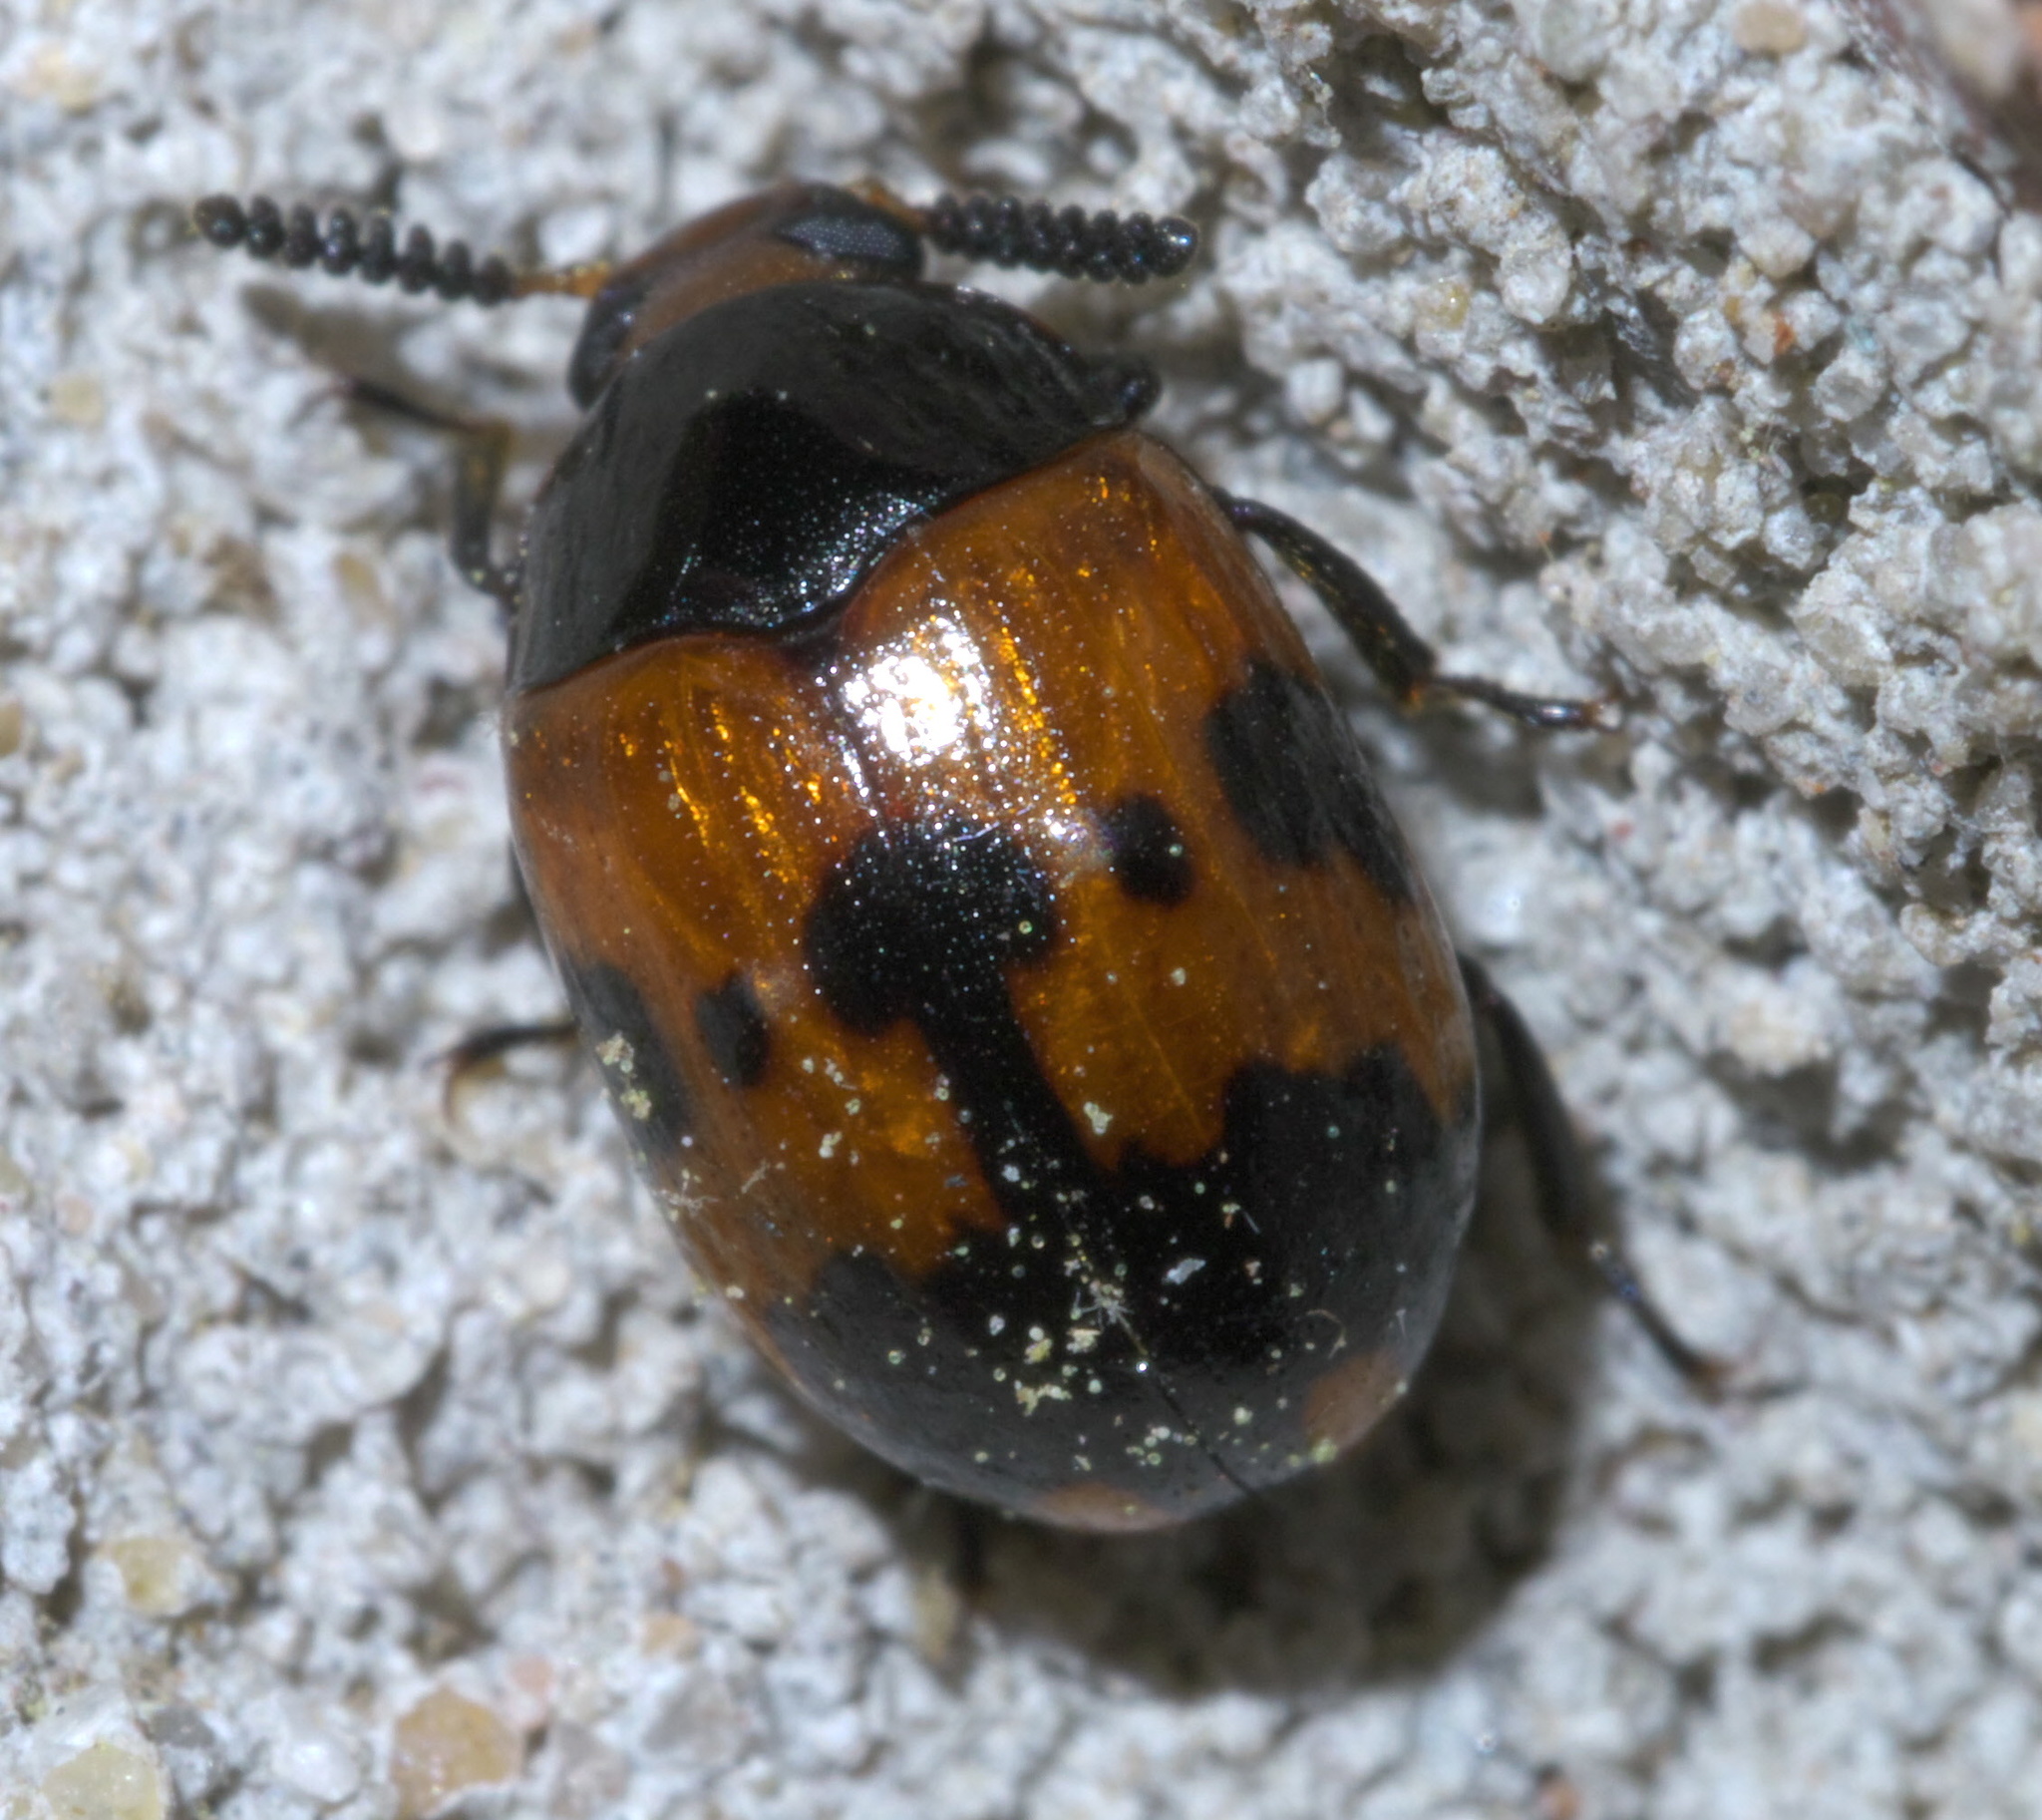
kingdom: Animalia
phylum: Arthropoda
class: Insecta
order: Coleoptera
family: Tenebrionidae
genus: Diaperis
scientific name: Diaperis nigronotata
